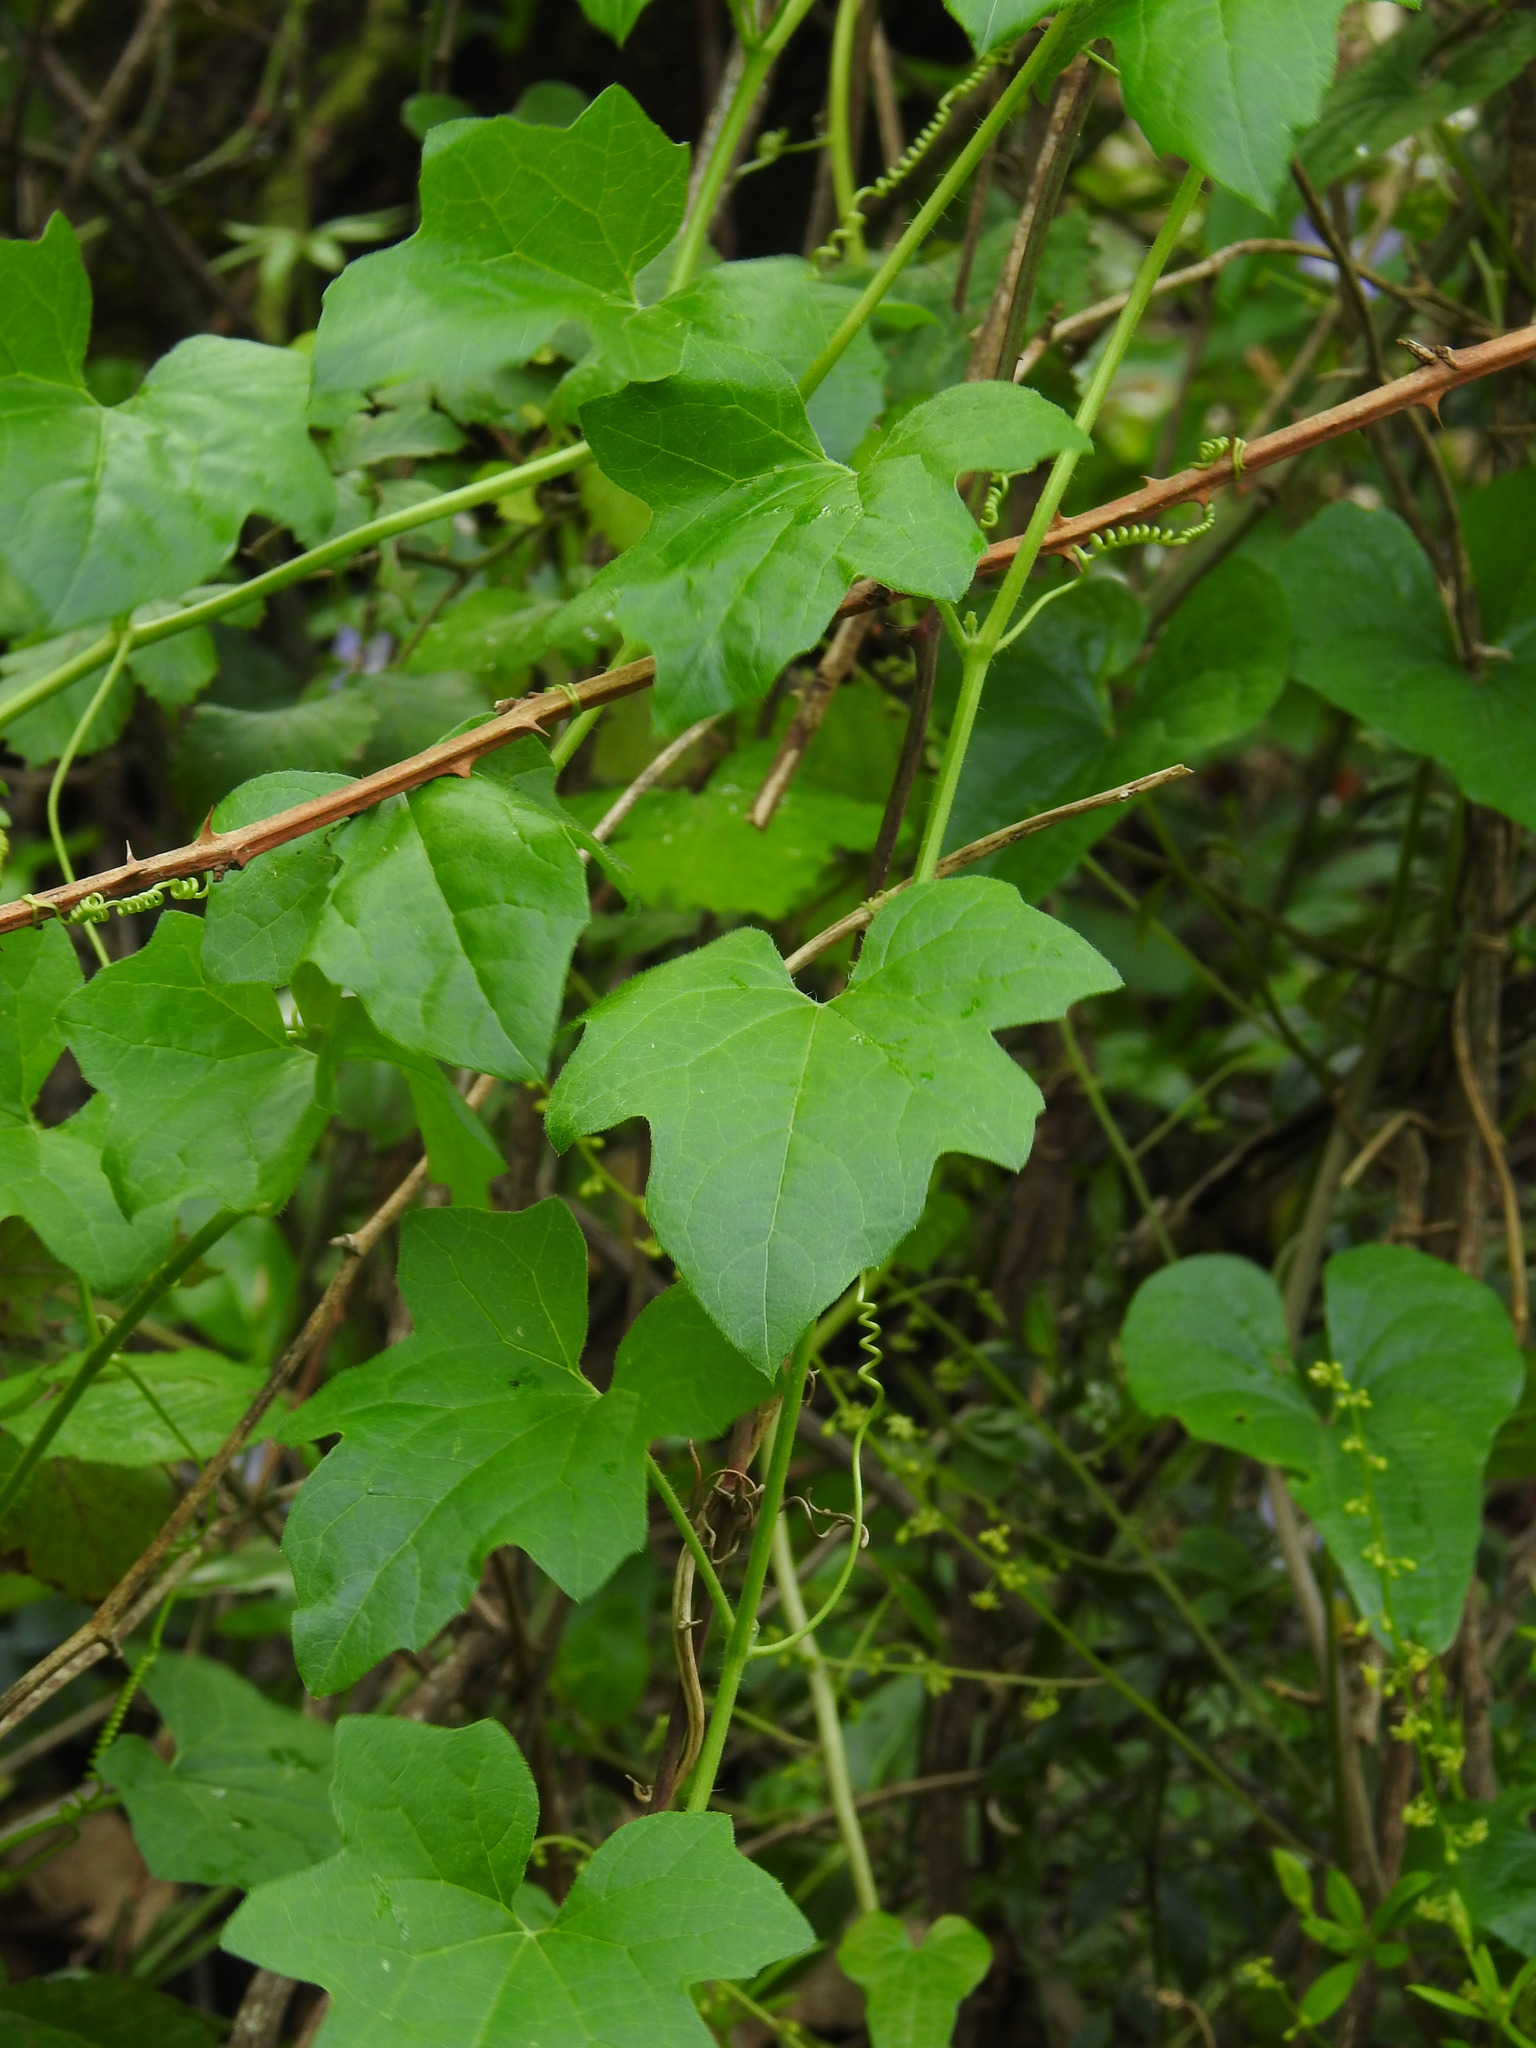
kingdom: Plantae
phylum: Tracheophyta
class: Magnoliopsida
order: Cucurbitales
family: Cucurbitaceae
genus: Bryonia
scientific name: Bryonia dioica
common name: White bryony
